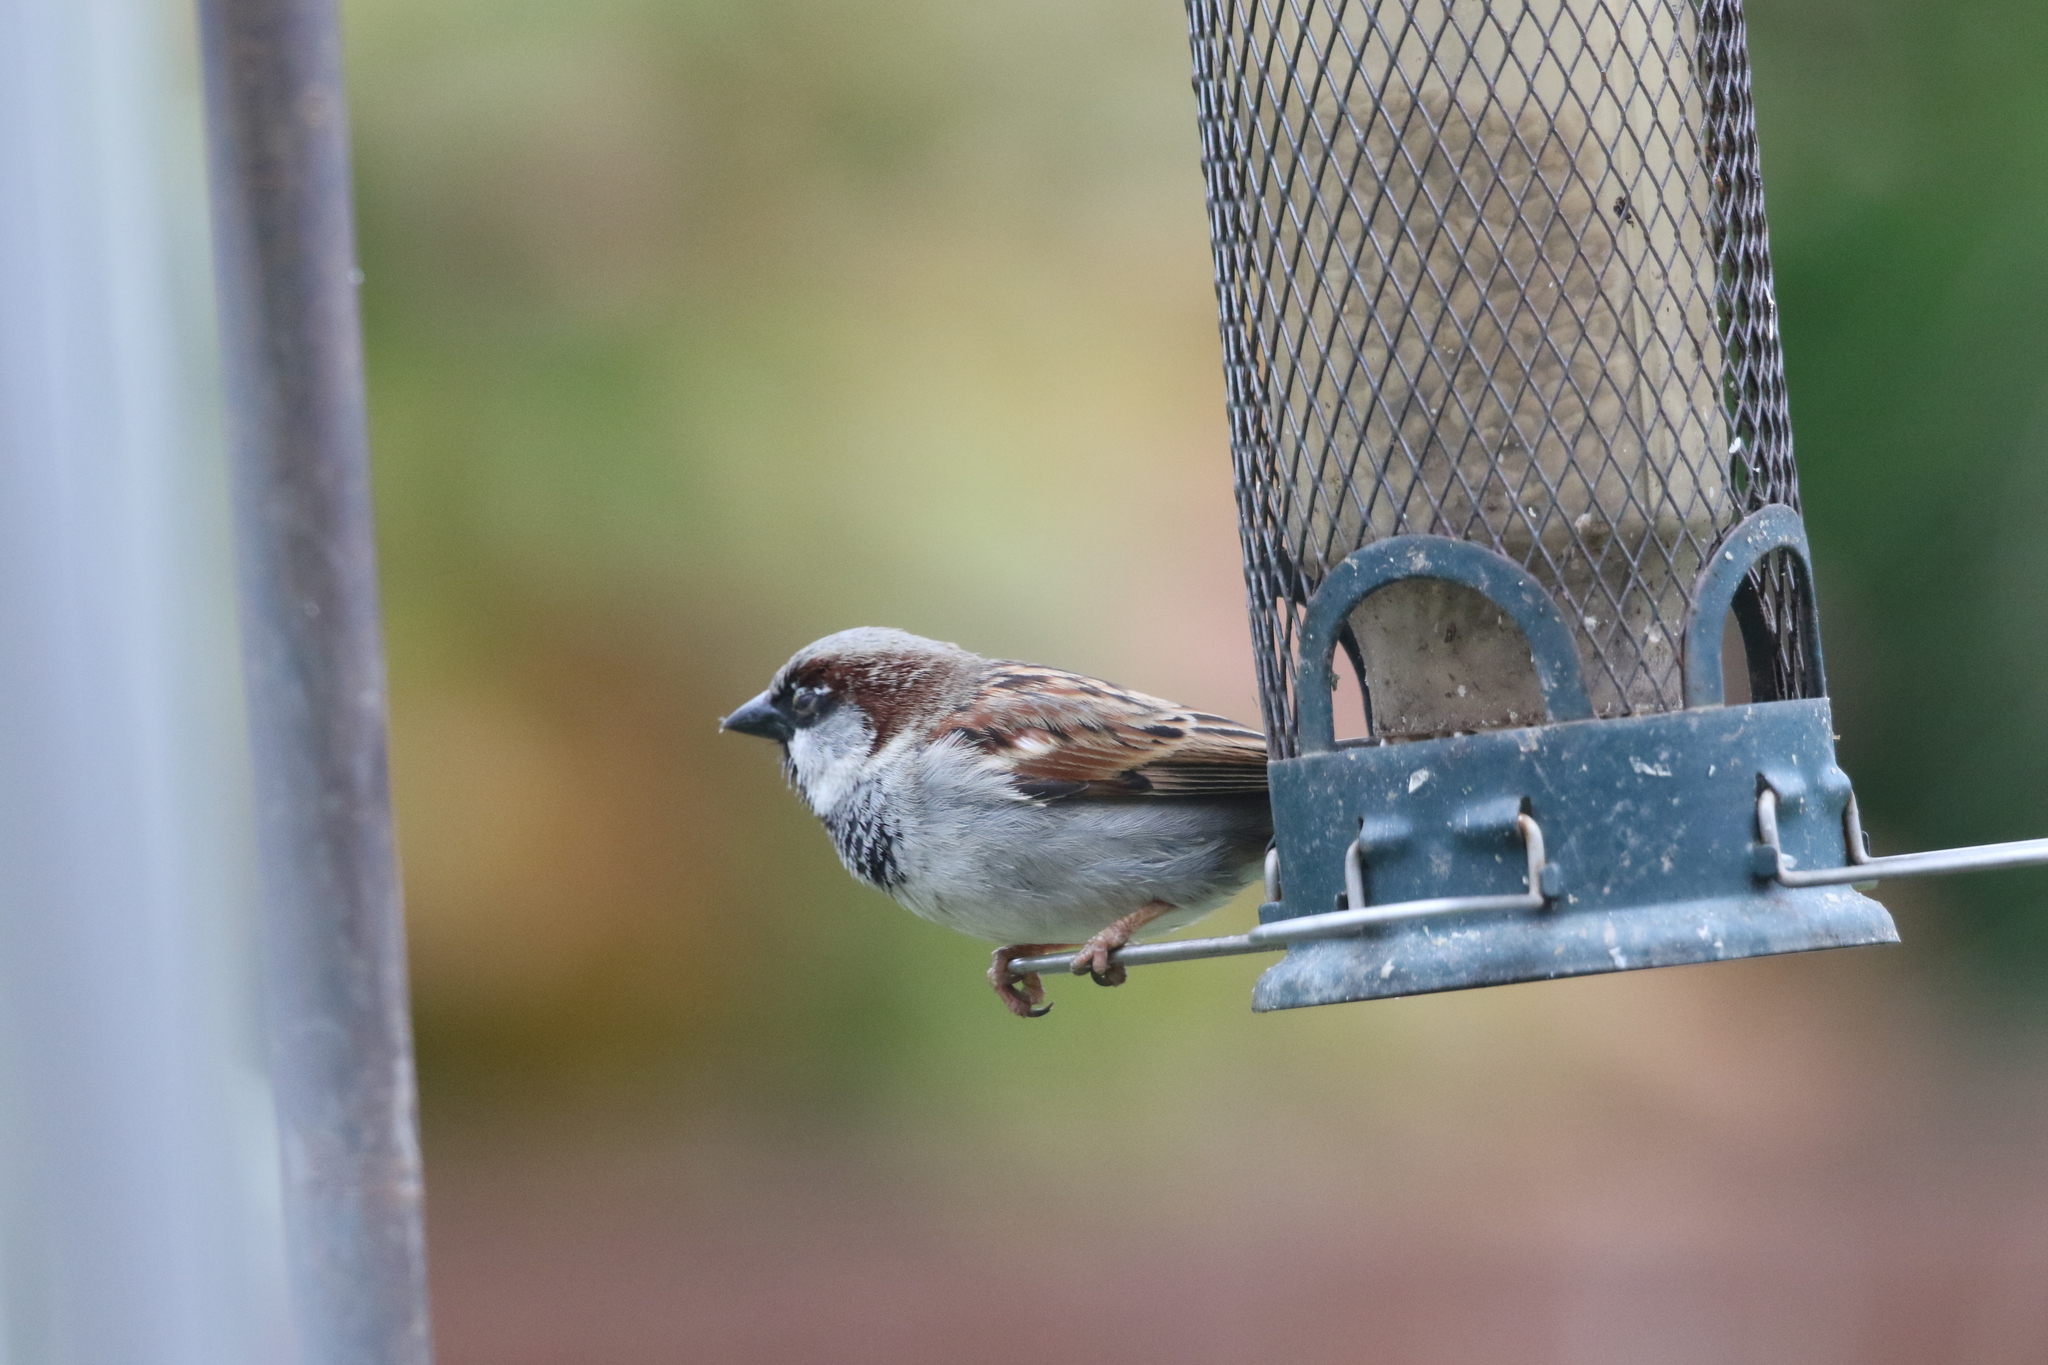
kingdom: Animalia
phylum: Chordata
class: Aves
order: Passeriformes
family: Passeridae
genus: Passer
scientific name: Passer domesticus
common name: House sparrow
